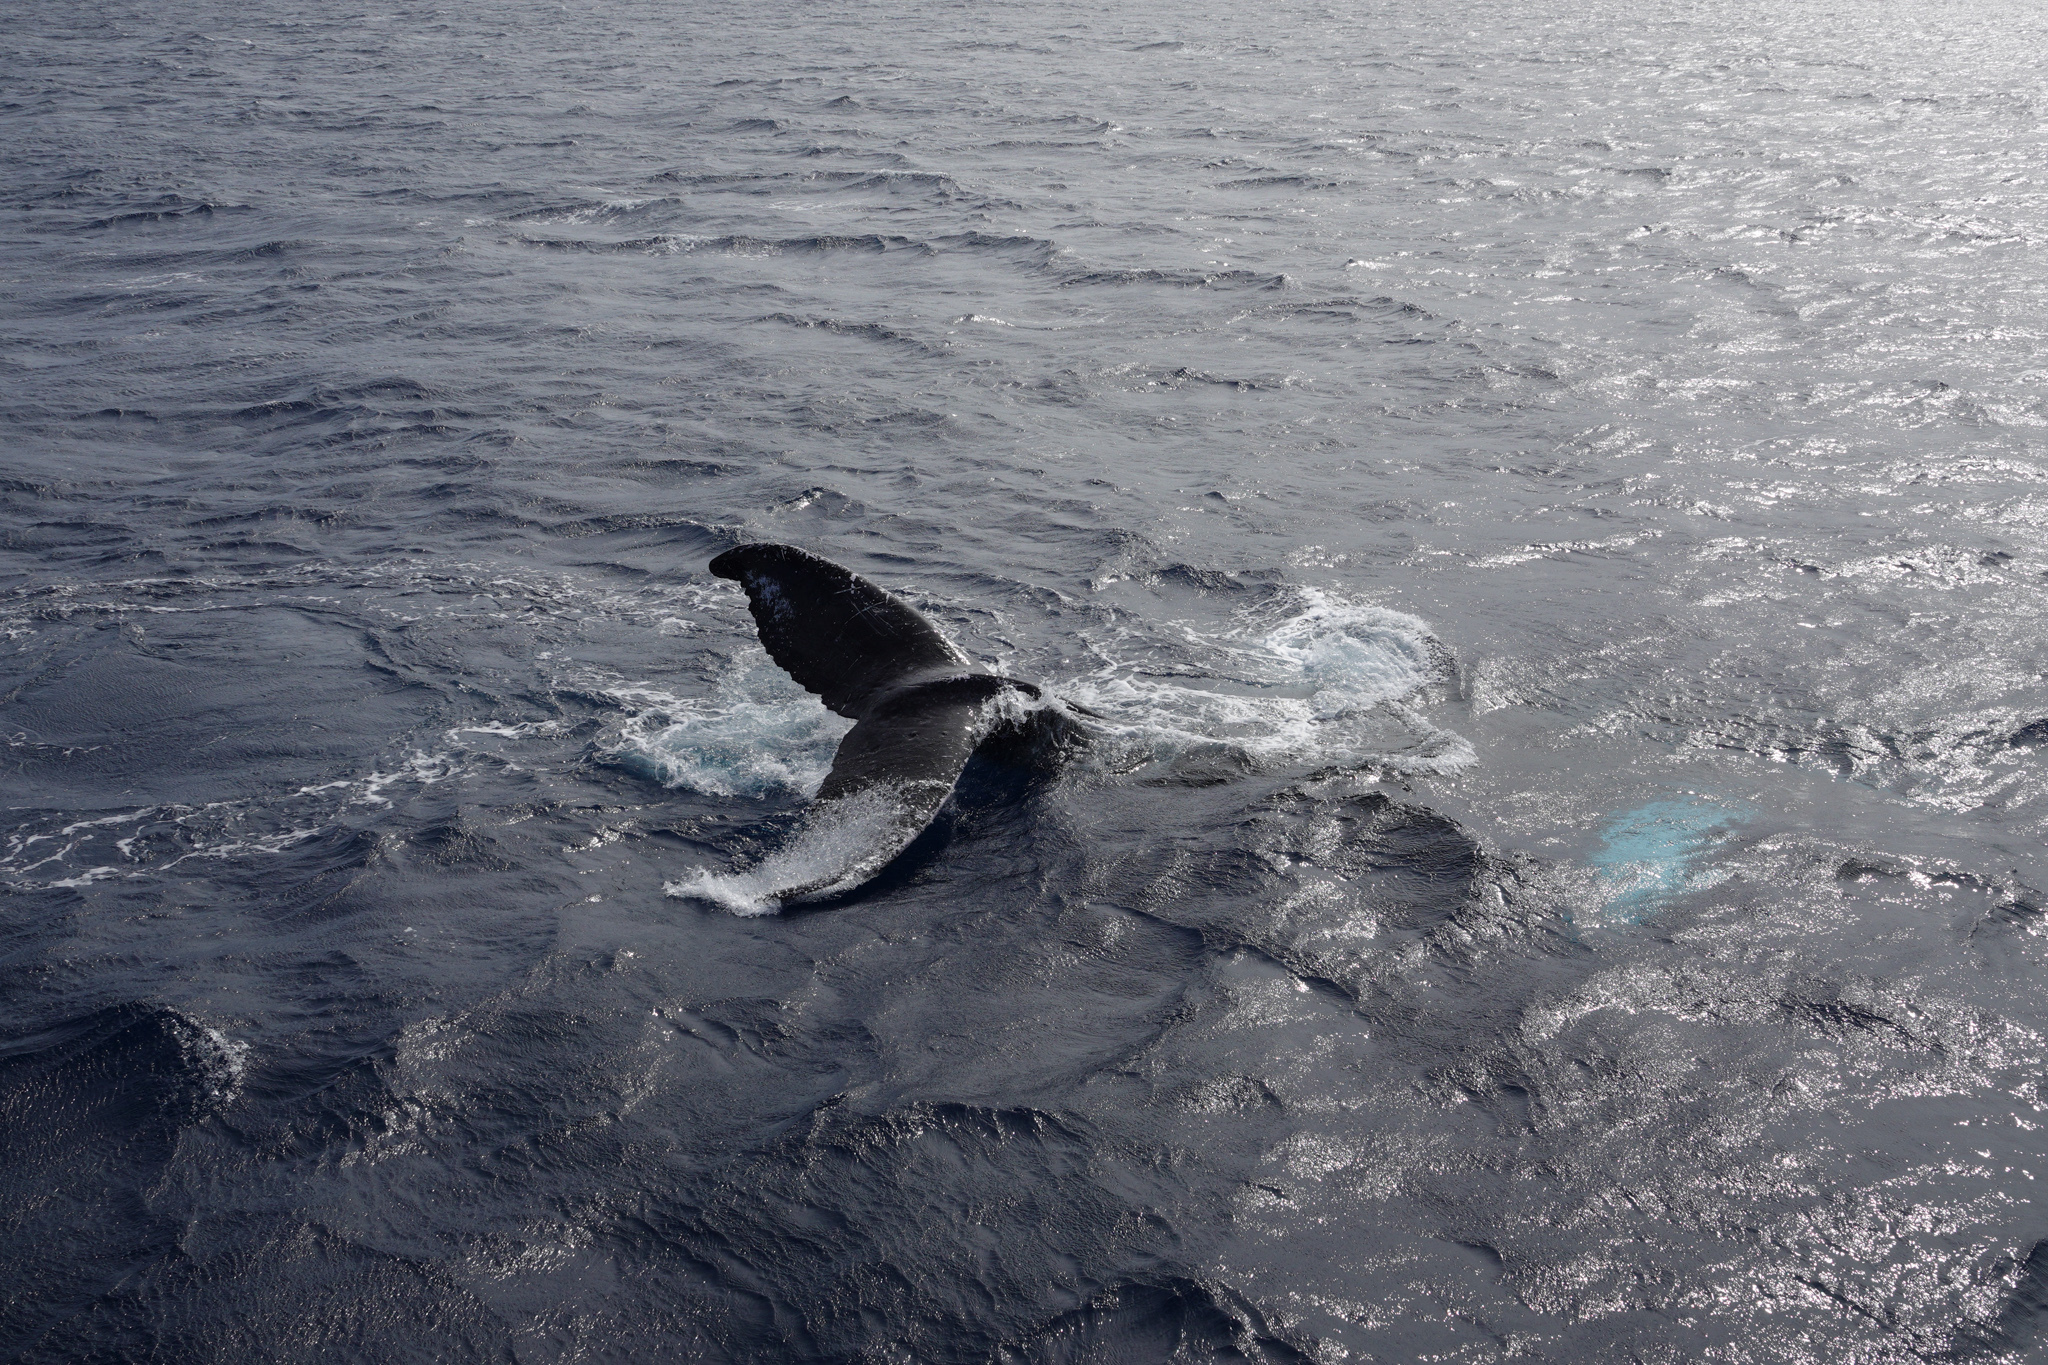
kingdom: Animalia
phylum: Chordata
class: Mammalia
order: Cetacea
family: Balaenopteridae
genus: Megaptera
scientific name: Megaptera novaeangliae
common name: Humpback whale
